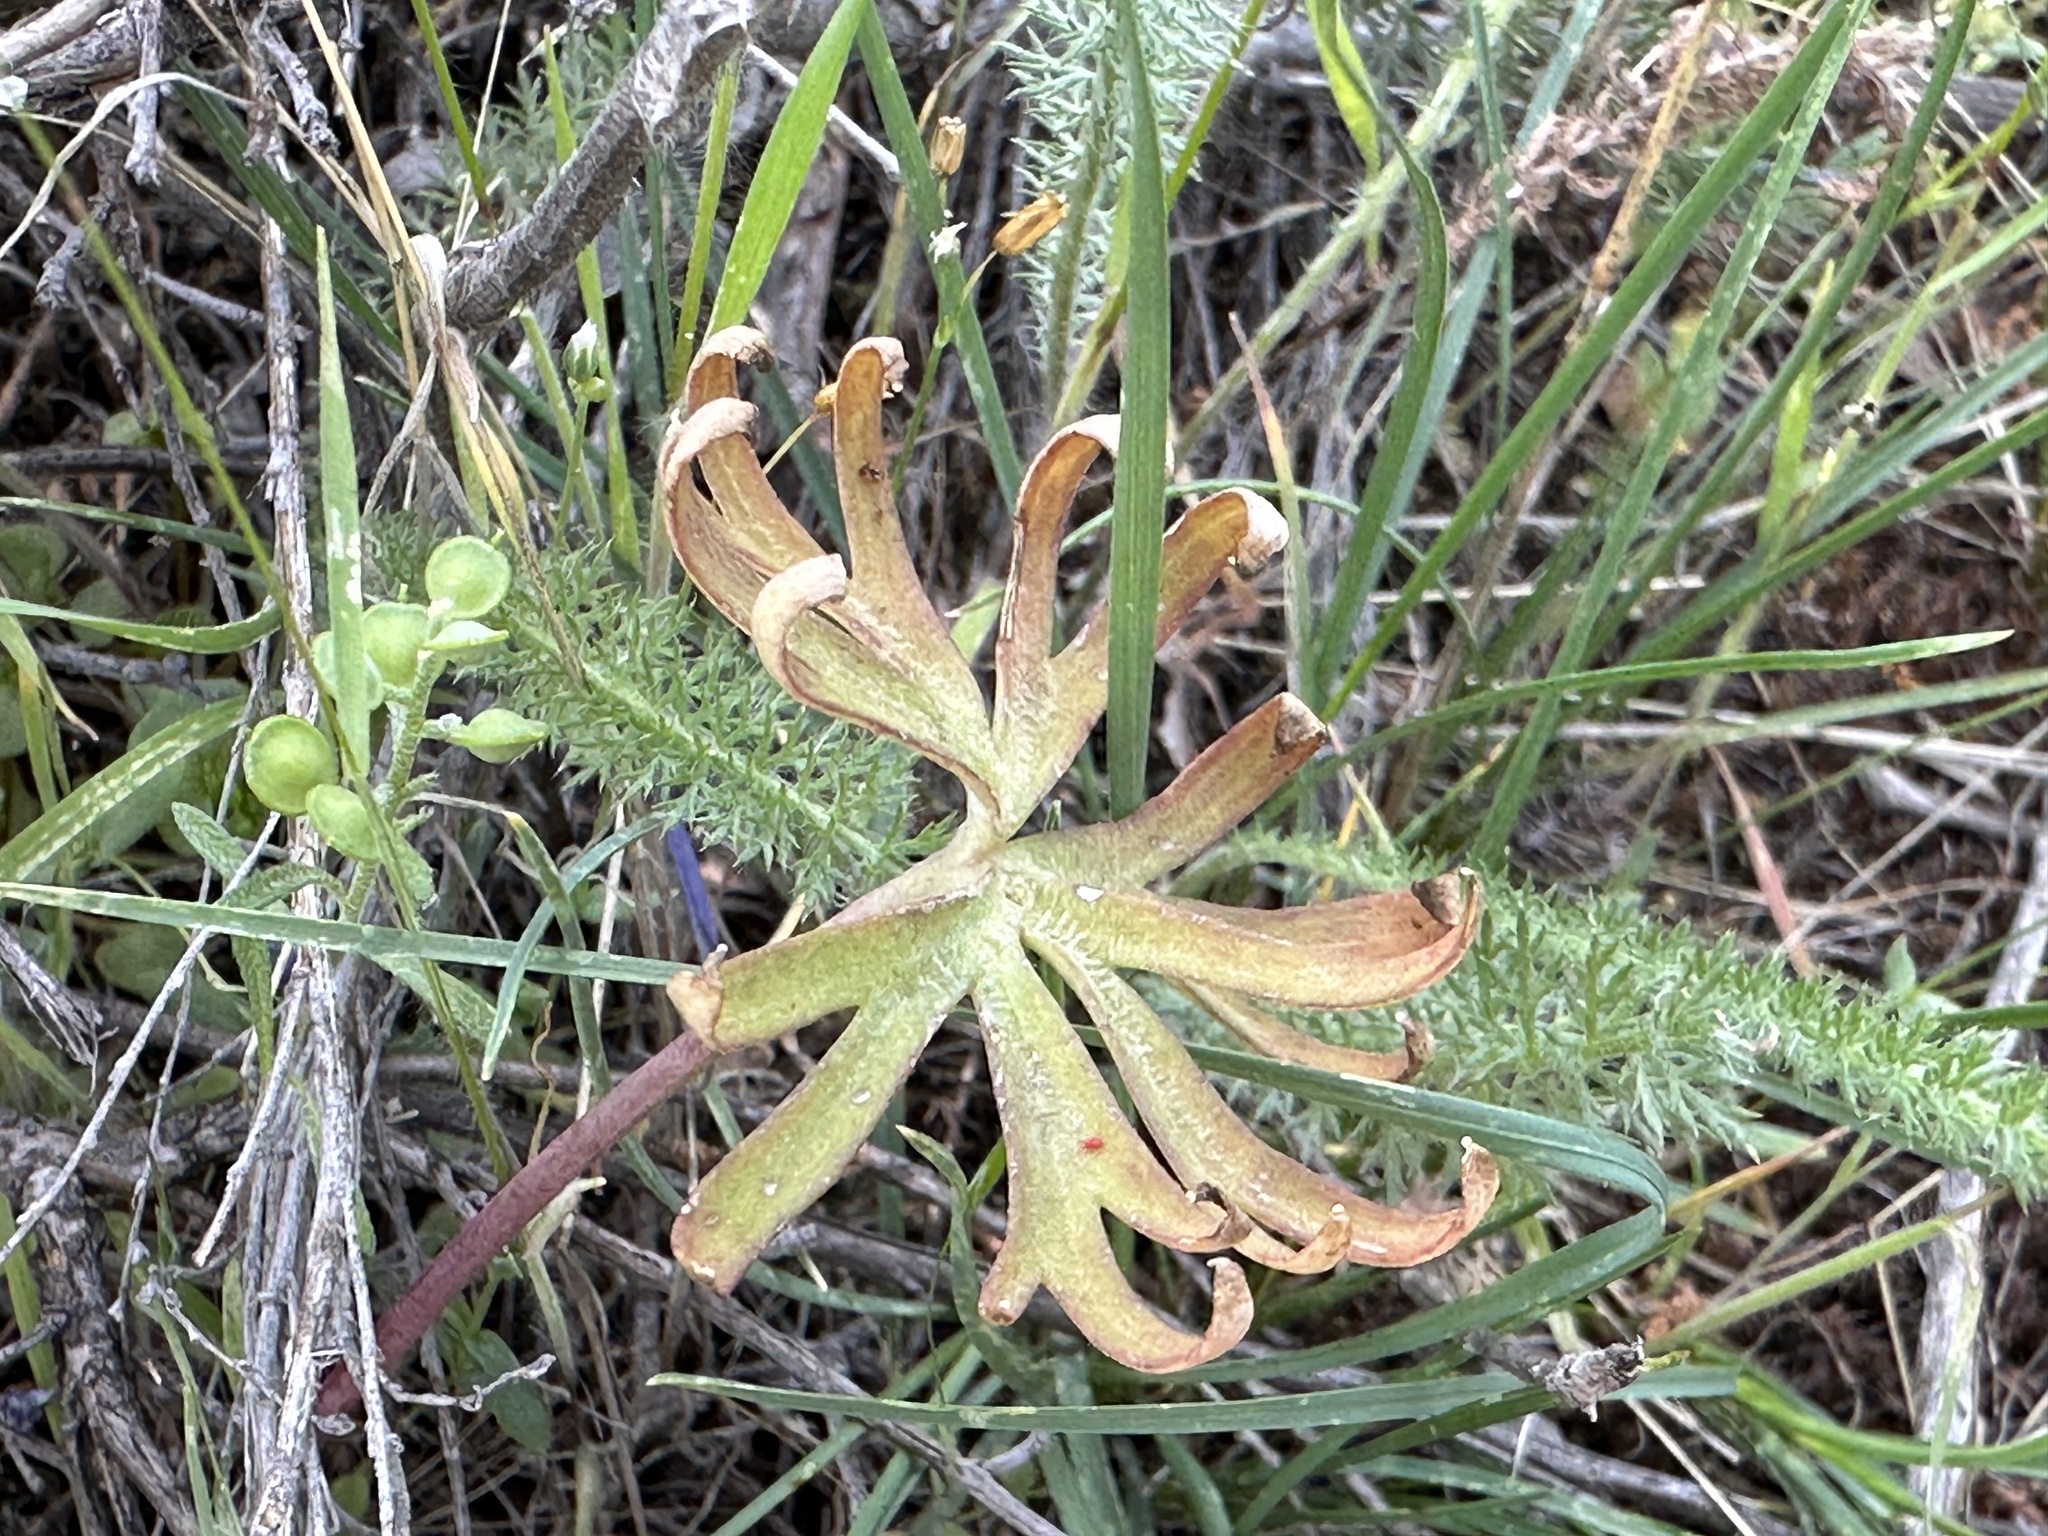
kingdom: Plantae
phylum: Tracheophyta
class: Magnoliopsida
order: Ranunculales
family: Ranunculaceae
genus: Delphinium
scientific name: Delphinium nuttallianum
